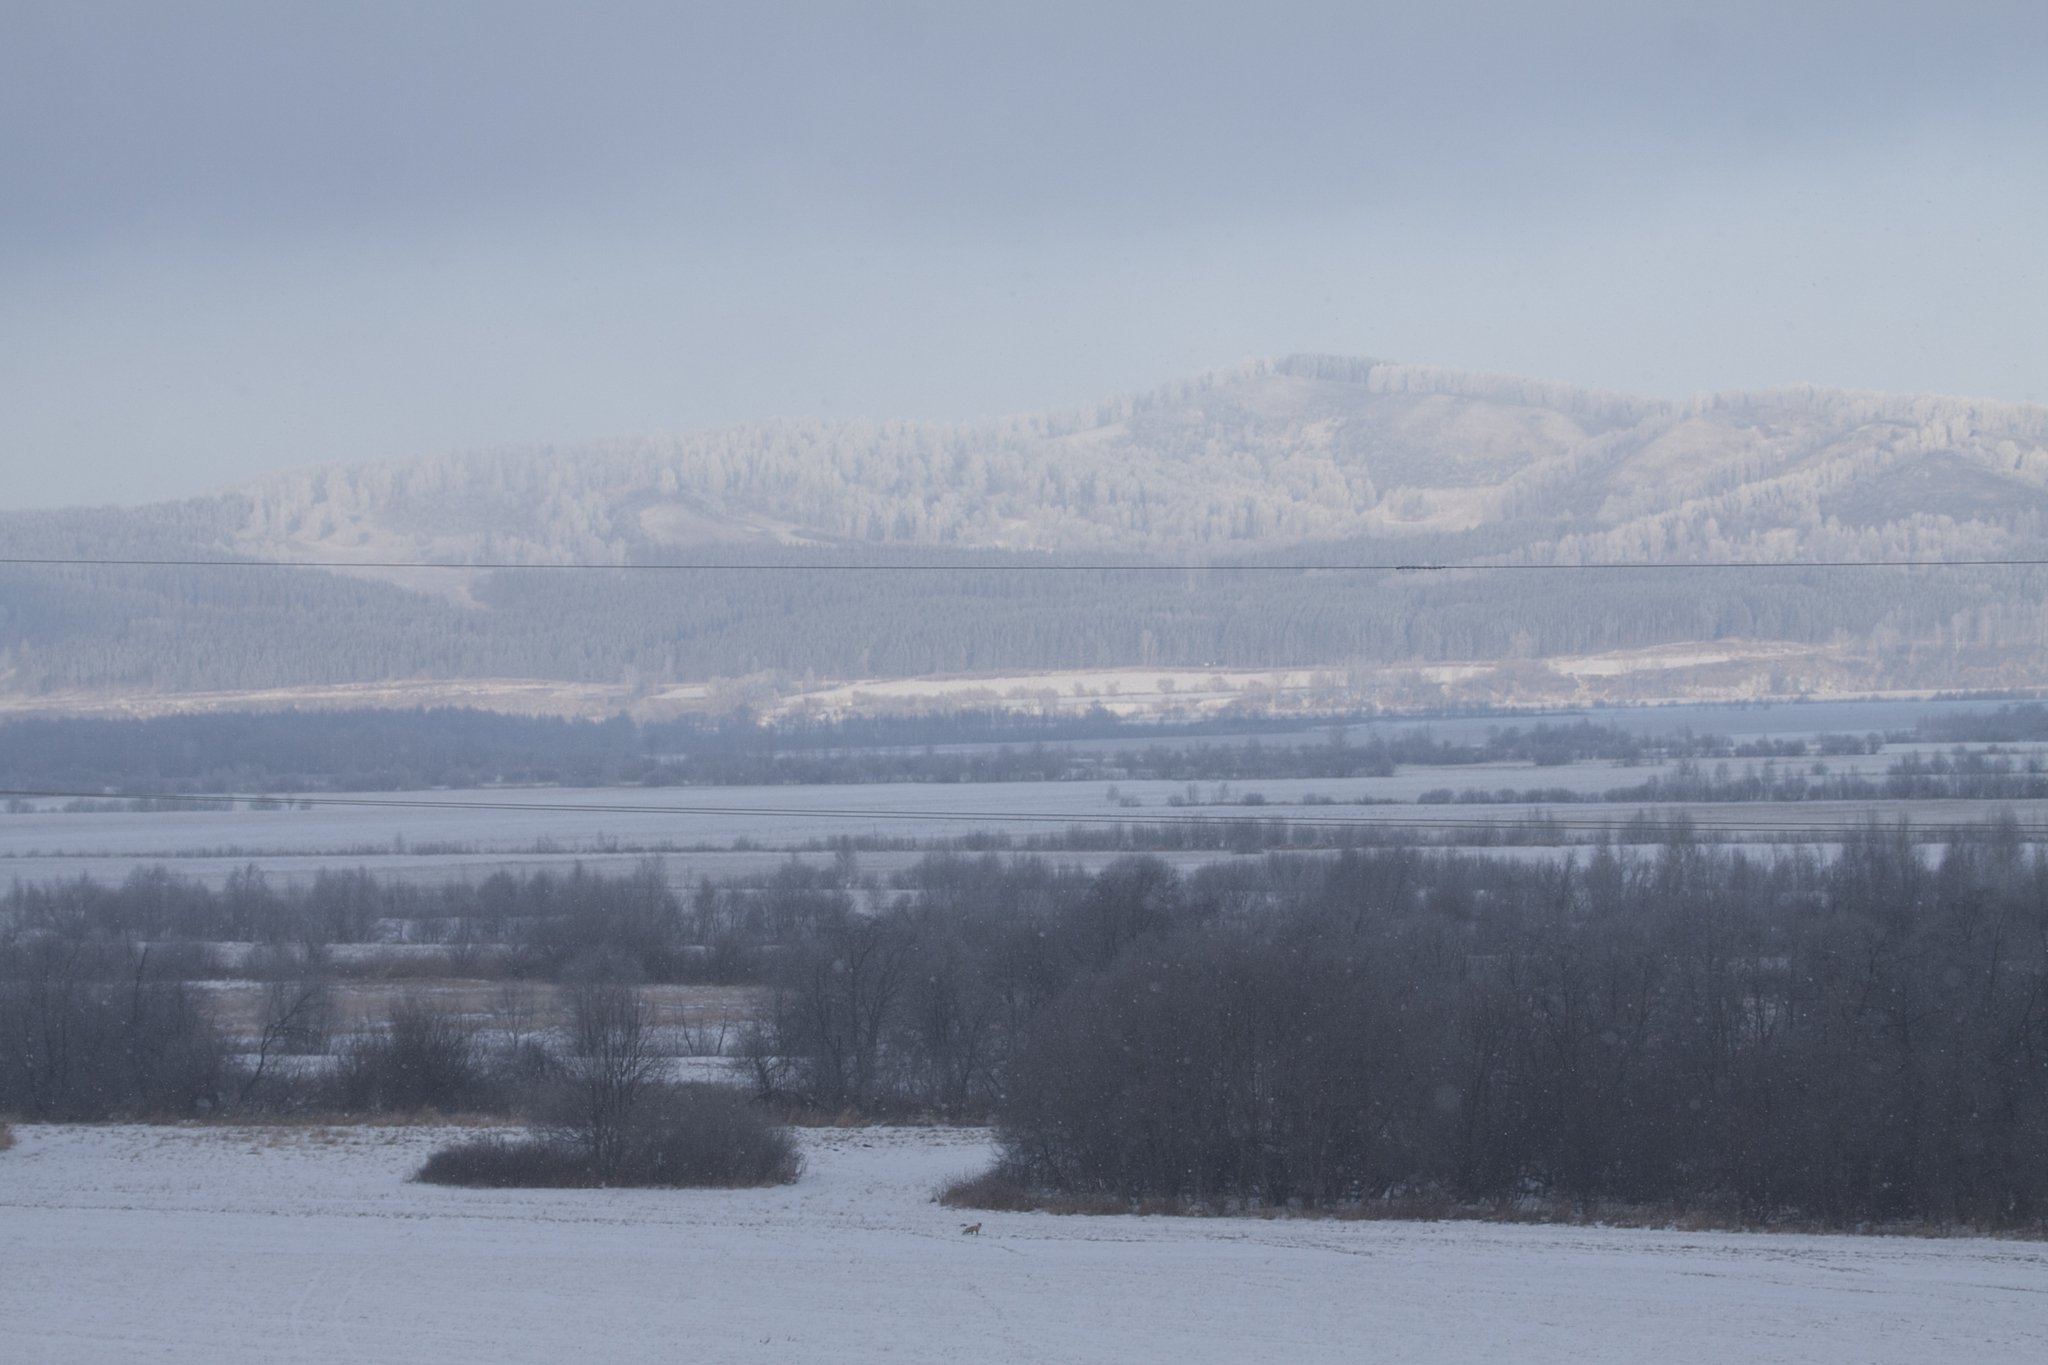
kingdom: Plantae
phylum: Tracheophyta
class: Pinopsida
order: Pinales
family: Pinaceae
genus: Pinus
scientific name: Pinus sylvestris
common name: Scots pine
